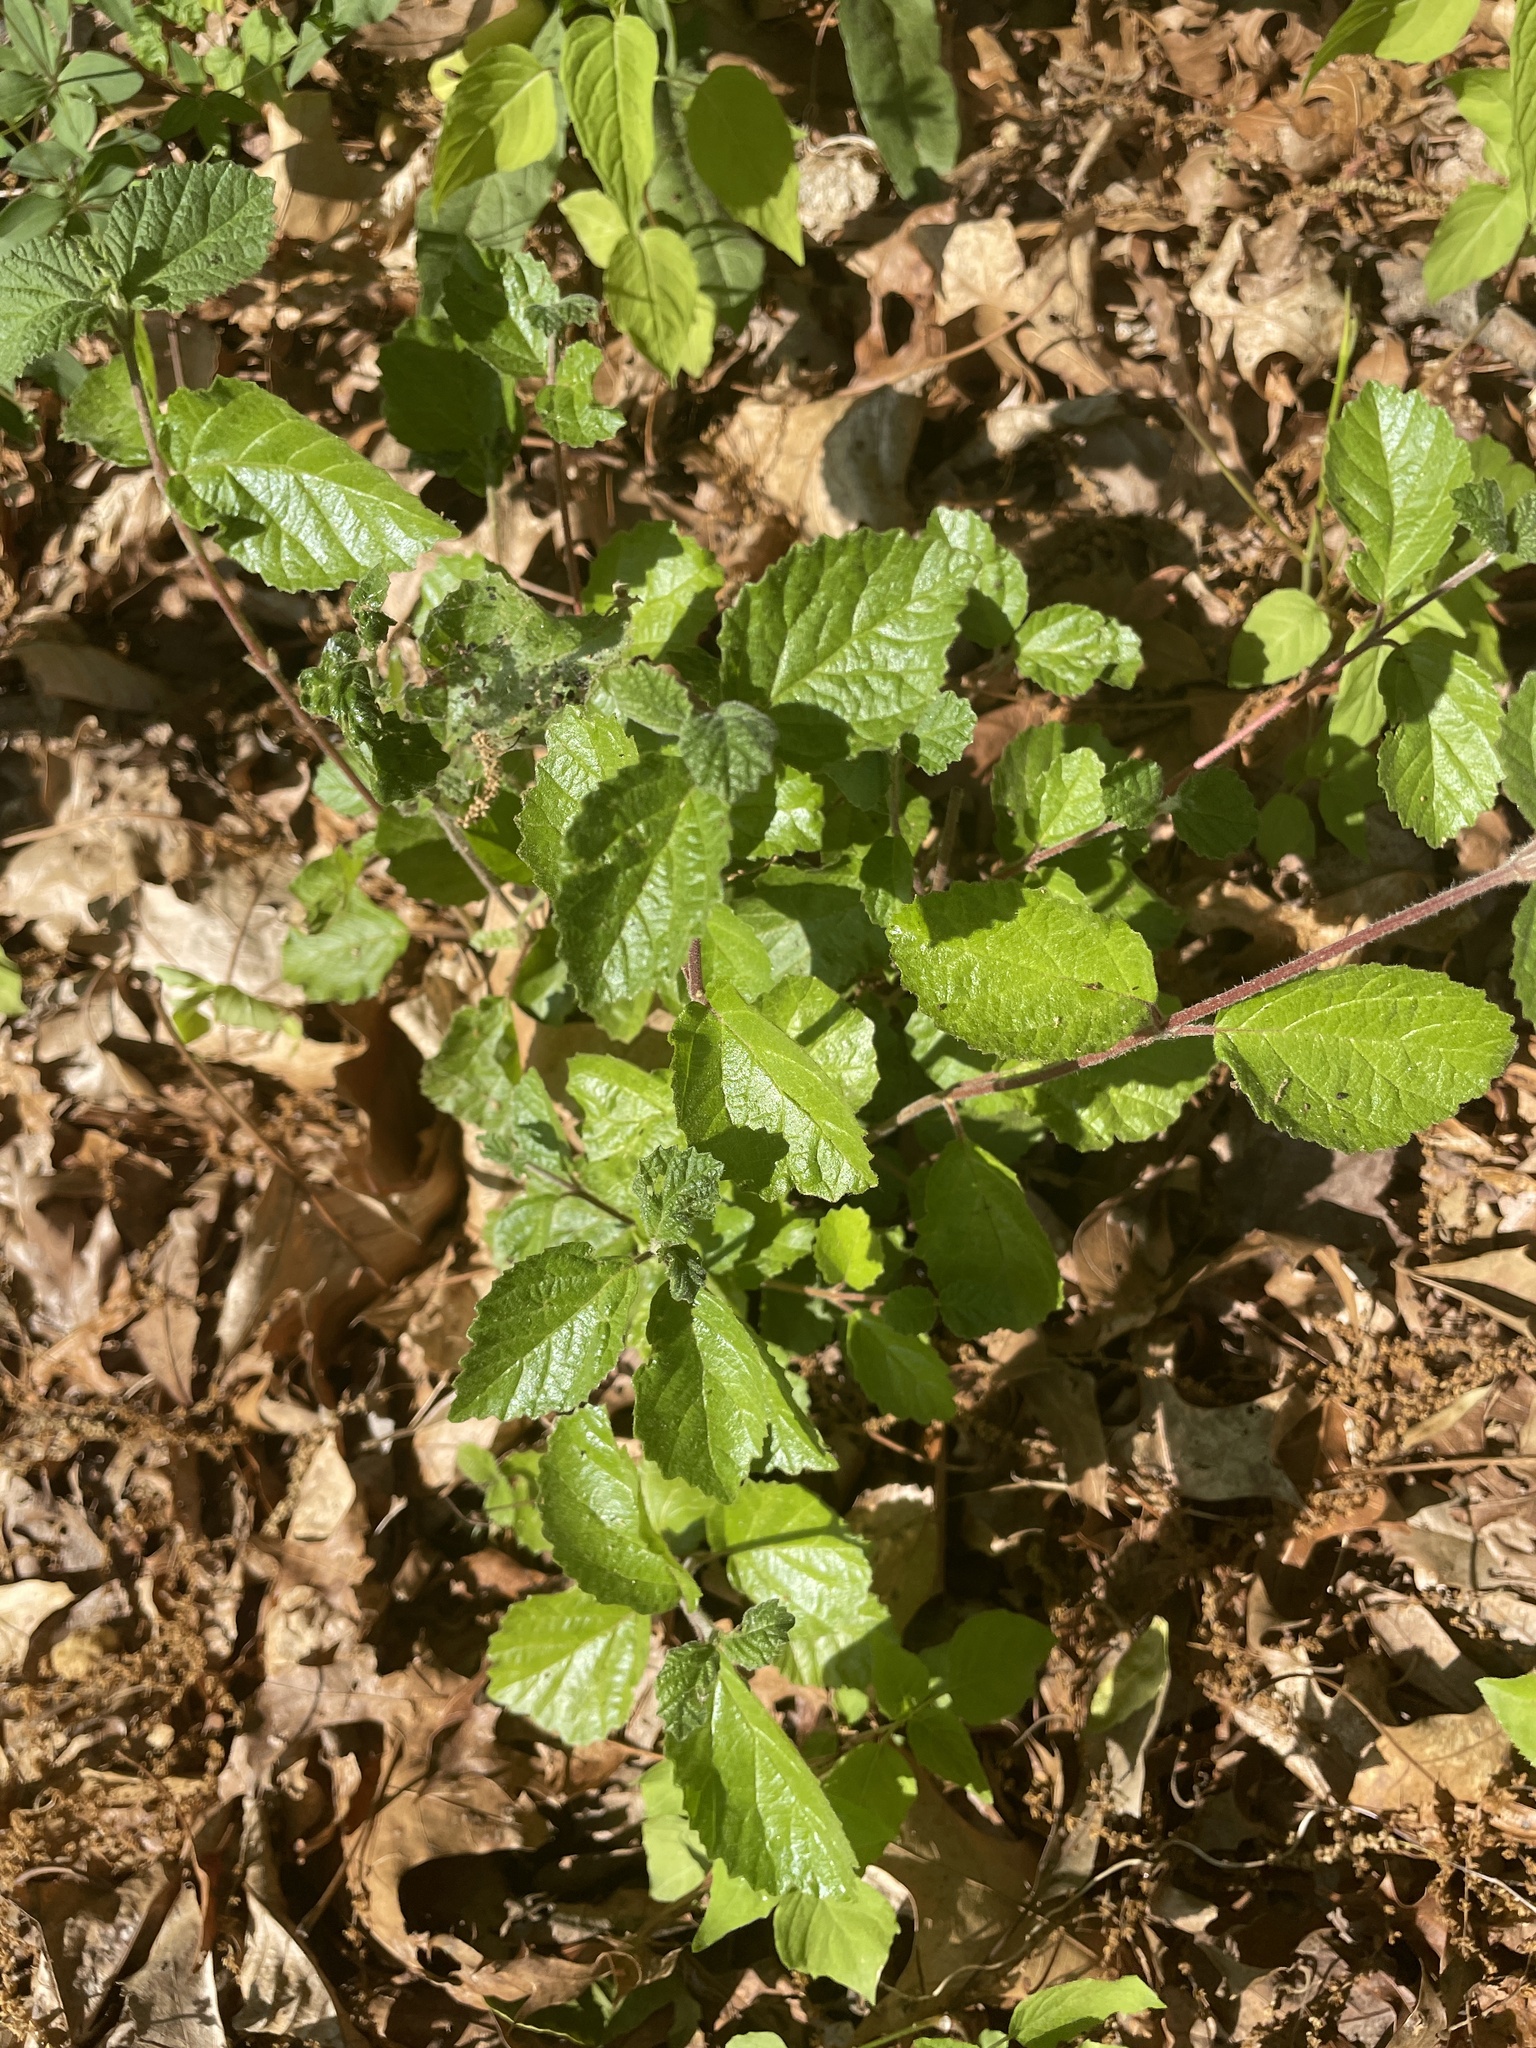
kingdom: Plantae
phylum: Tracheophyta
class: Magnoliopsida
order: Dipsacales
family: Viburnaceae
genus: Viburnum
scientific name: Viburnum dilatatum
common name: Linden arrowwood
